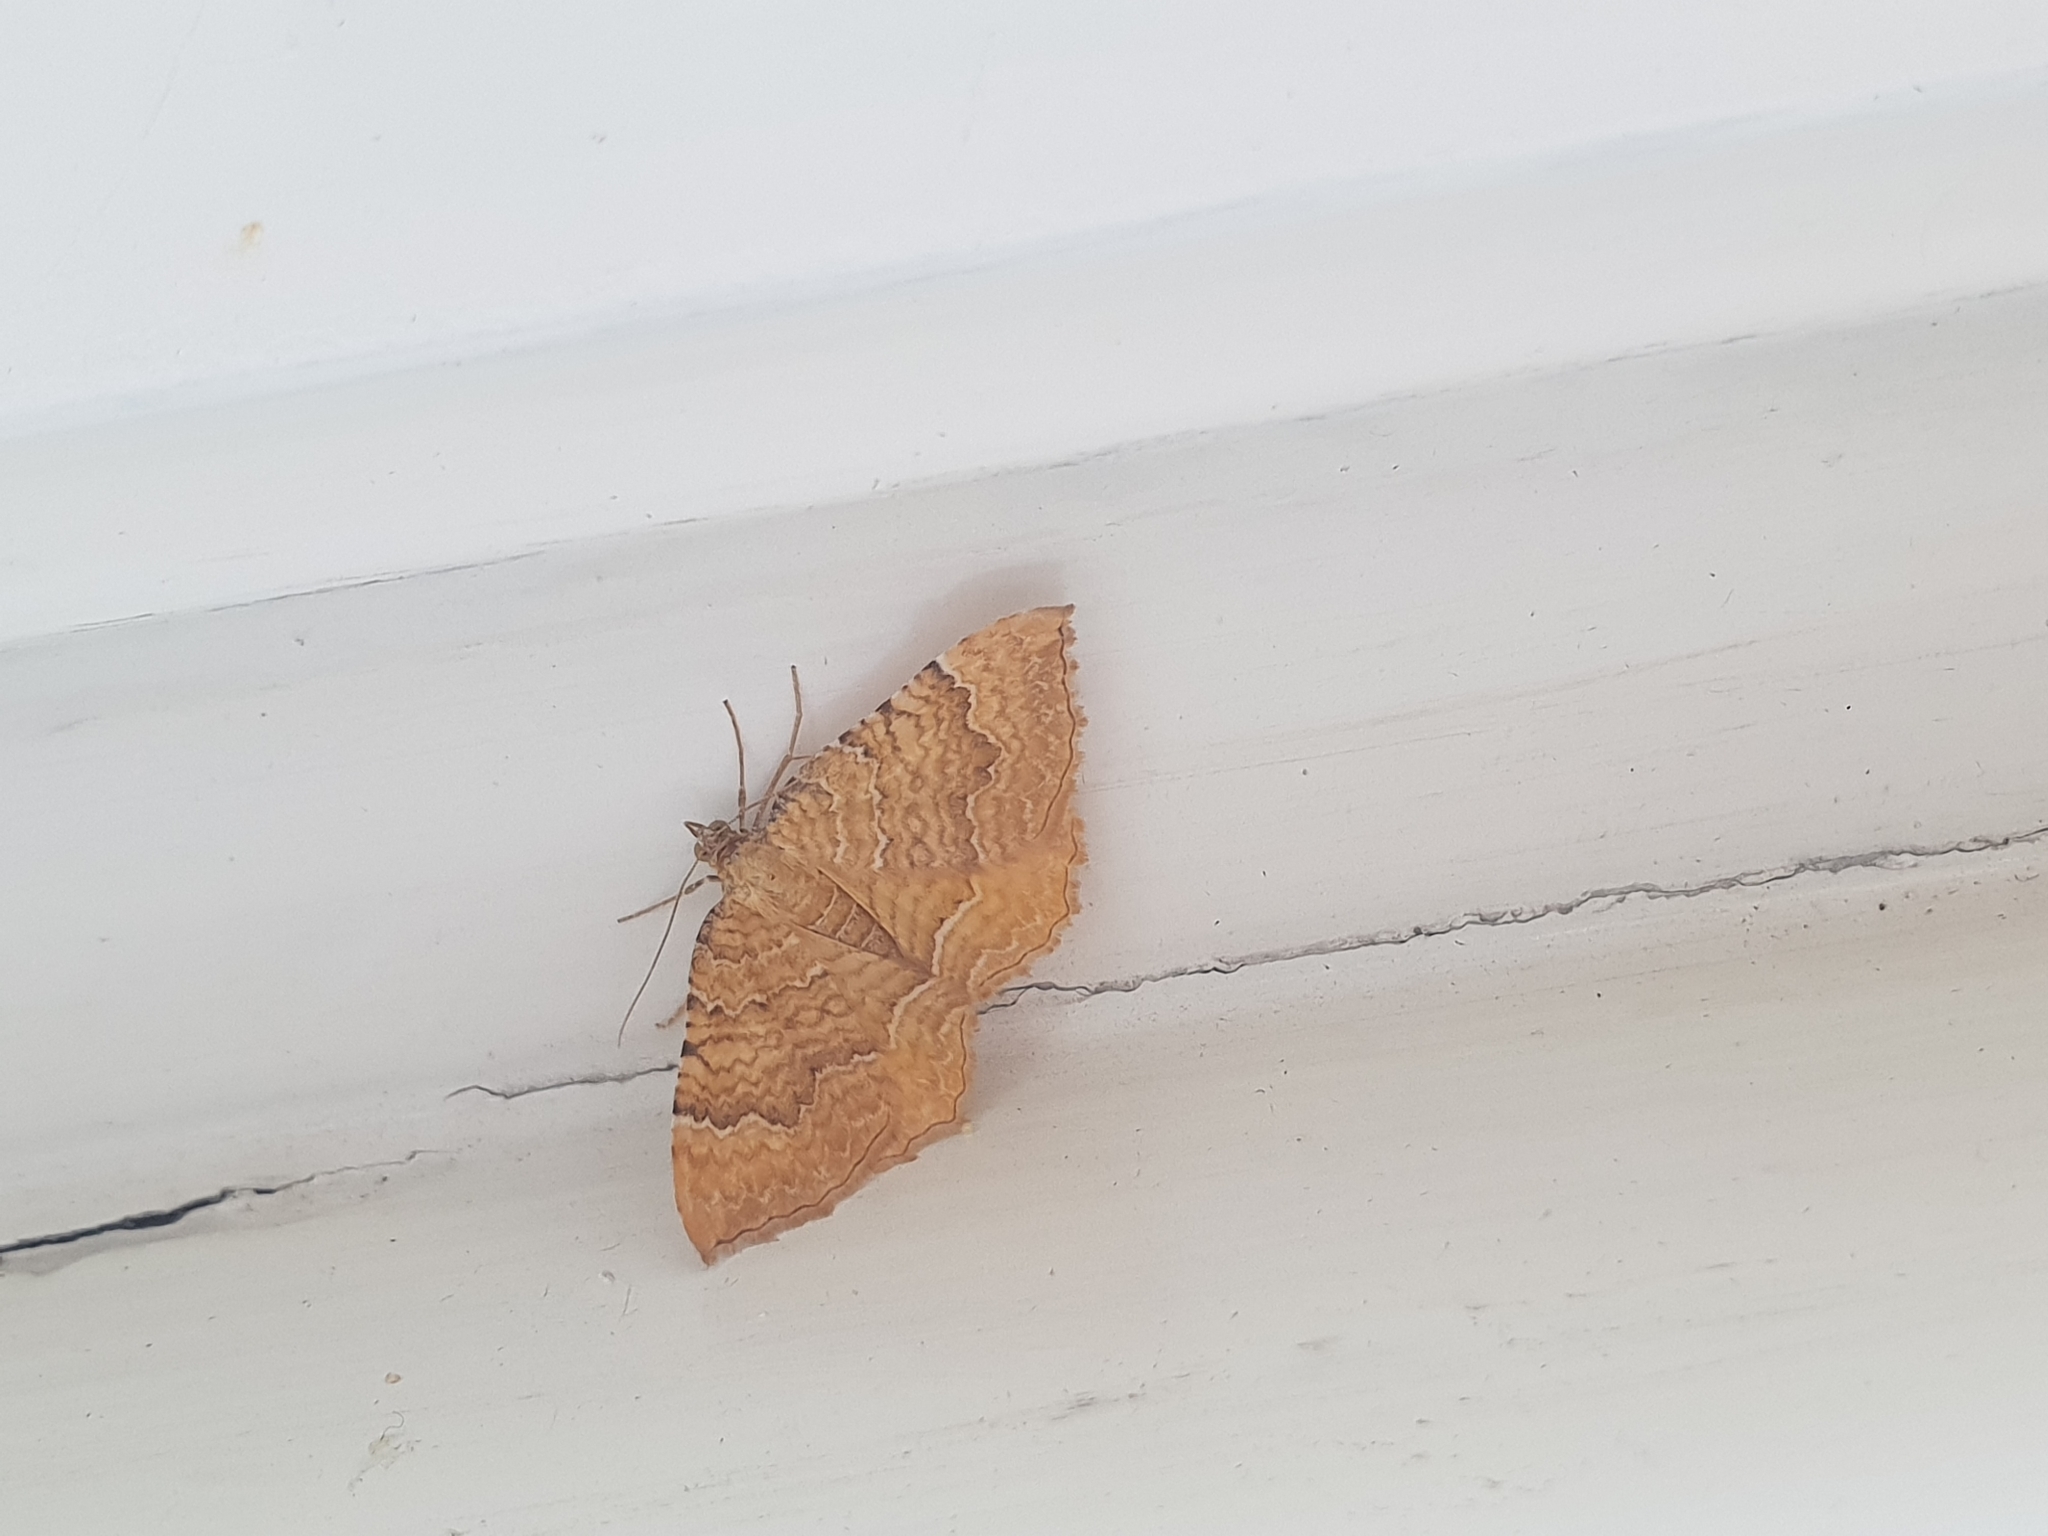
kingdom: Animalia
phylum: Arthropoda
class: Insecta
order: Lepidoptera
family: Geometridae
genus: Camptogramma
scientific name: Camptogramma bilineata
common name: Yellow shell
